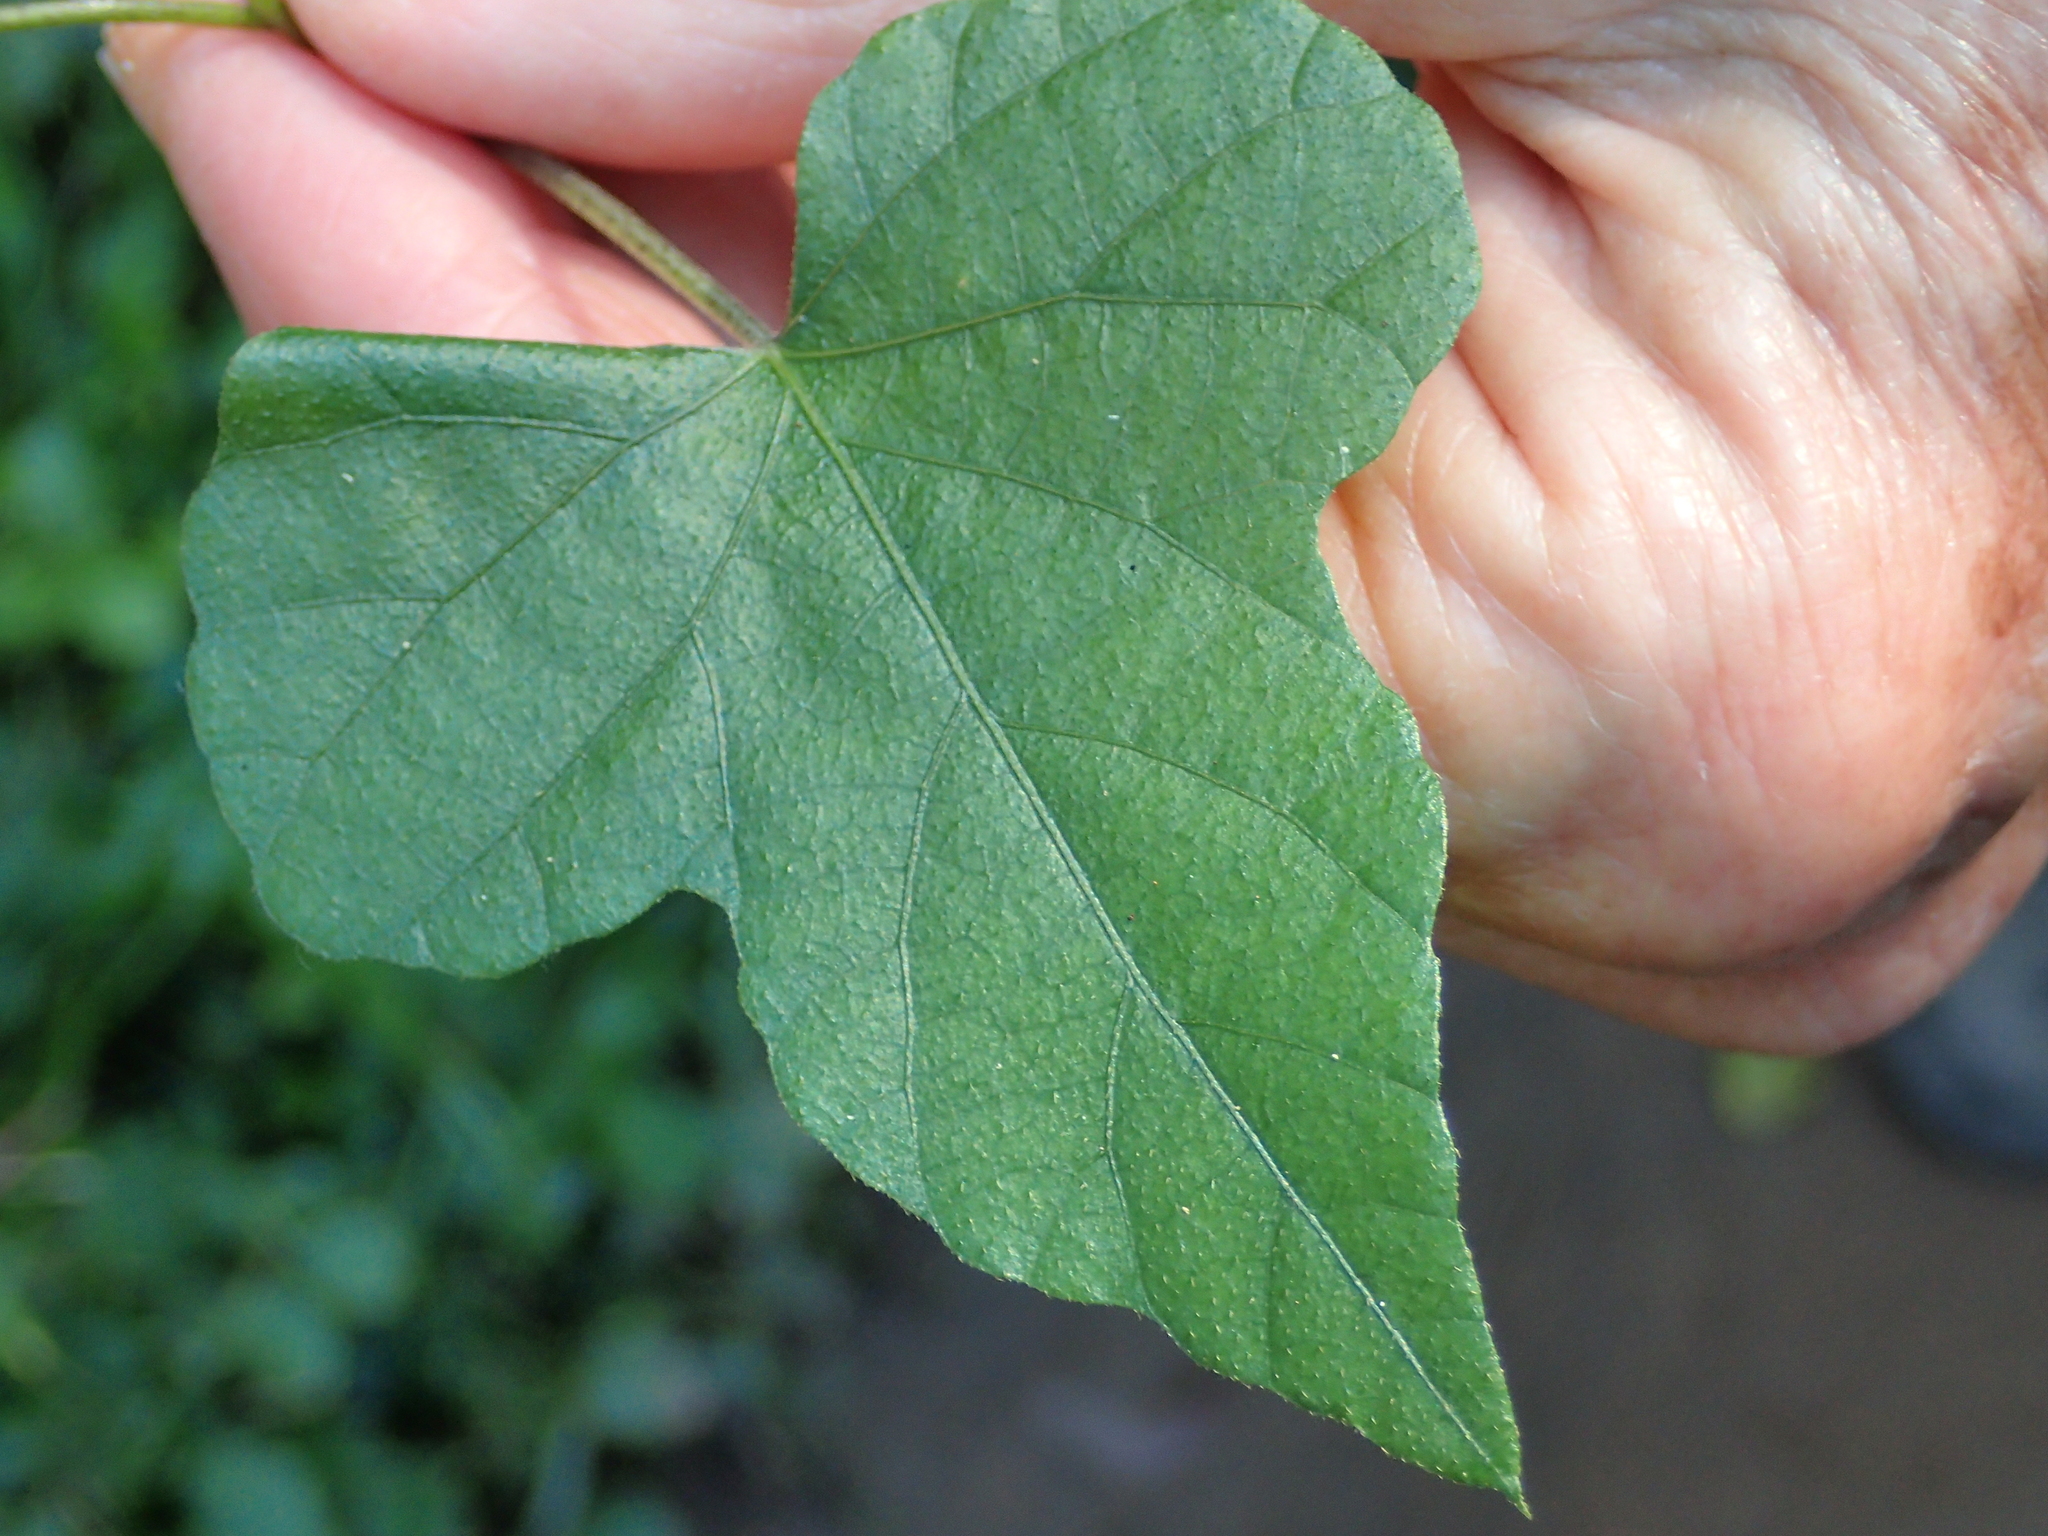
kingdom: Plantae
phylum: Tracheophyta
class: Magnoliopsida
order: Solanales
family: Convolvulaceae
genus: Ipomoea
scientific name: Ipomoea ficifolia
